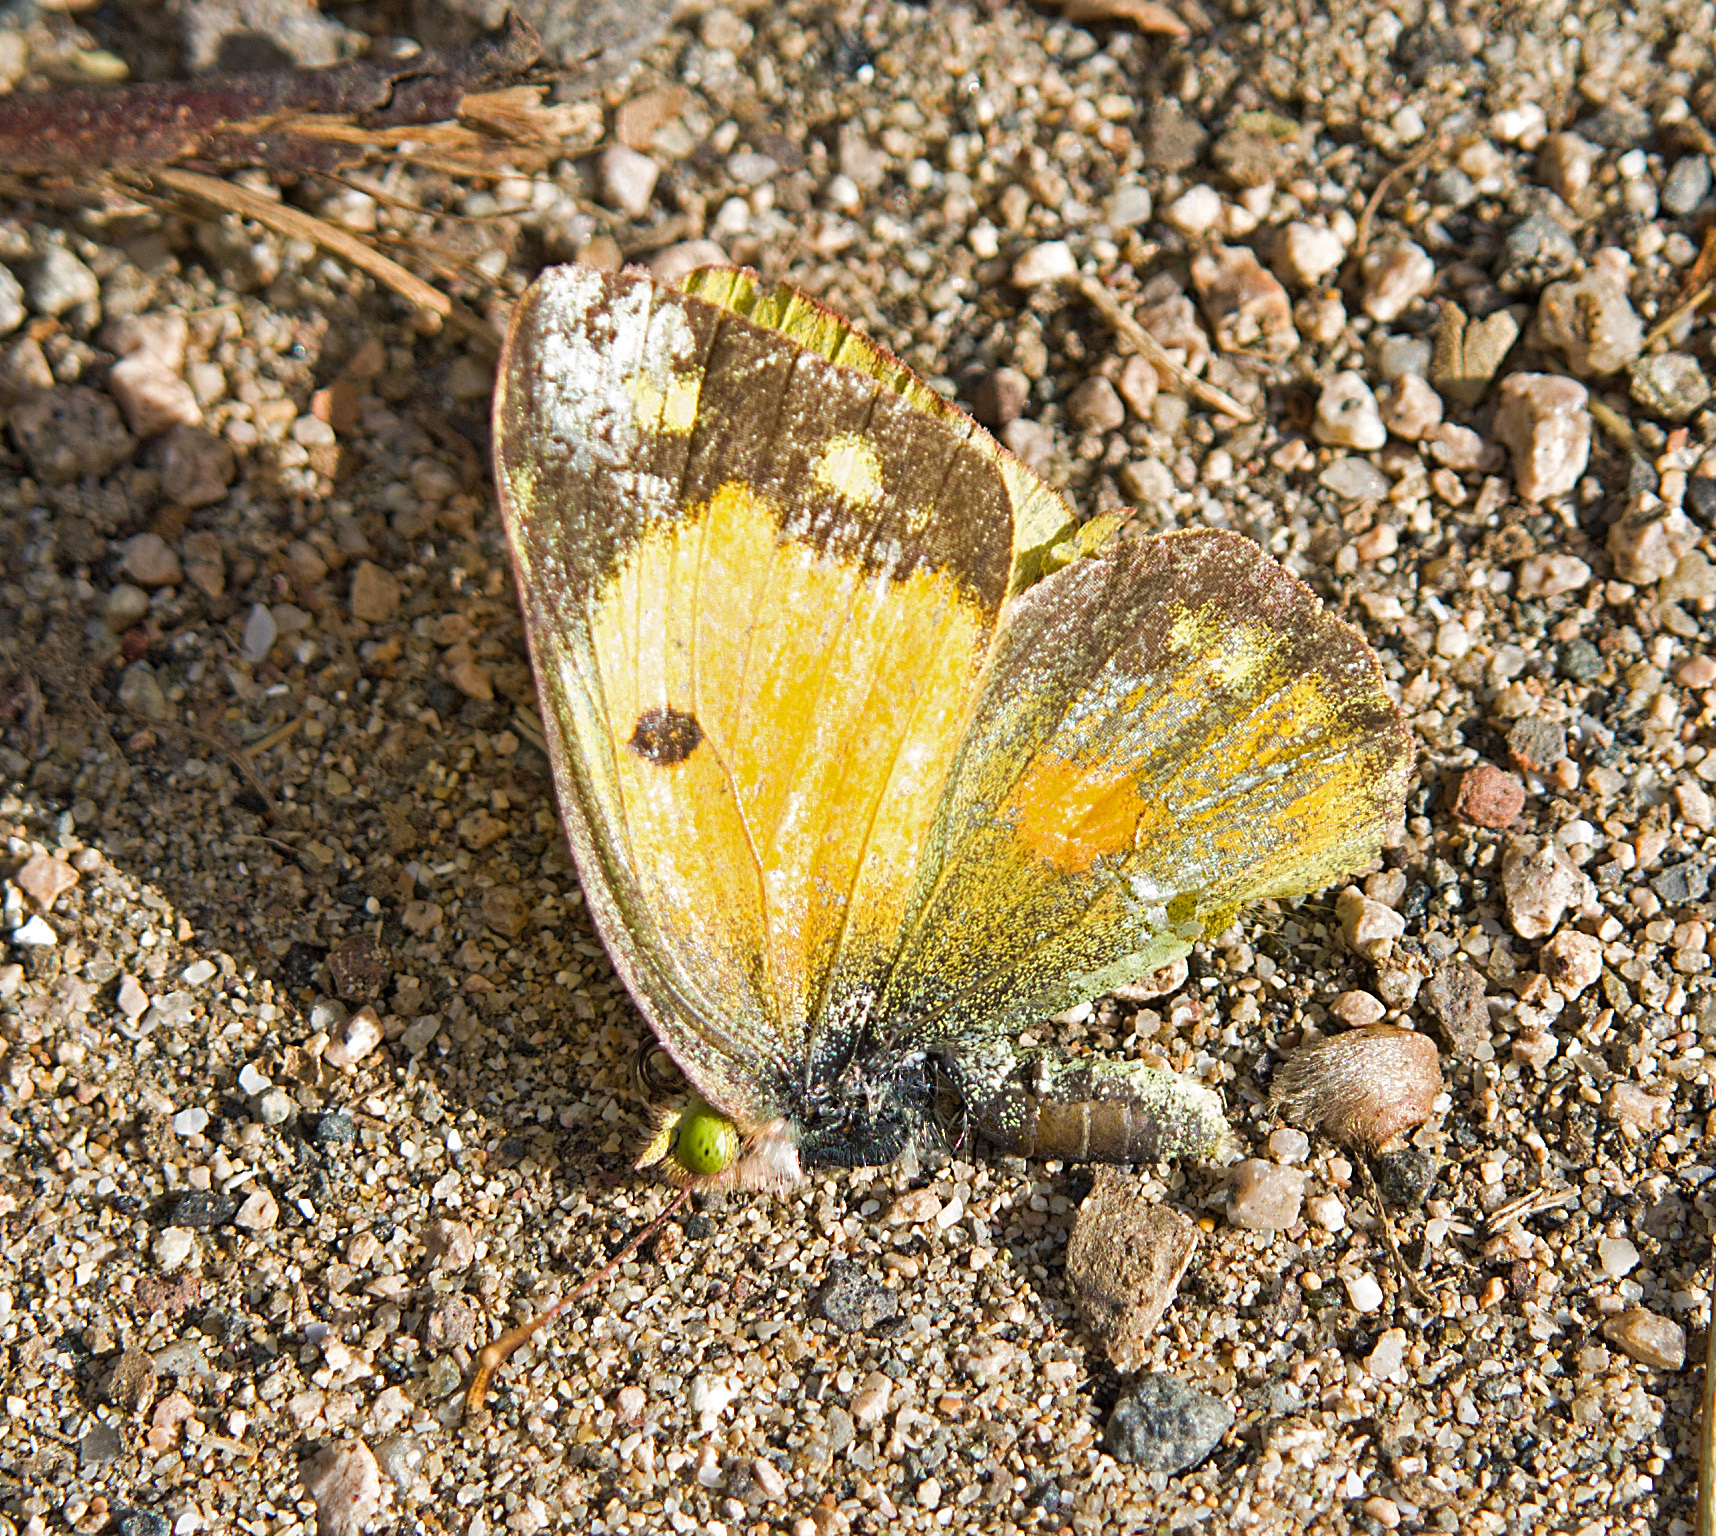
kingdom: Animalia
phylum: Arthropoda
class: Insecta
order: Lepidoptera
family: Pieridae
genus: Colias
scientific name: Colias croceus
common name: Clouded yellow
